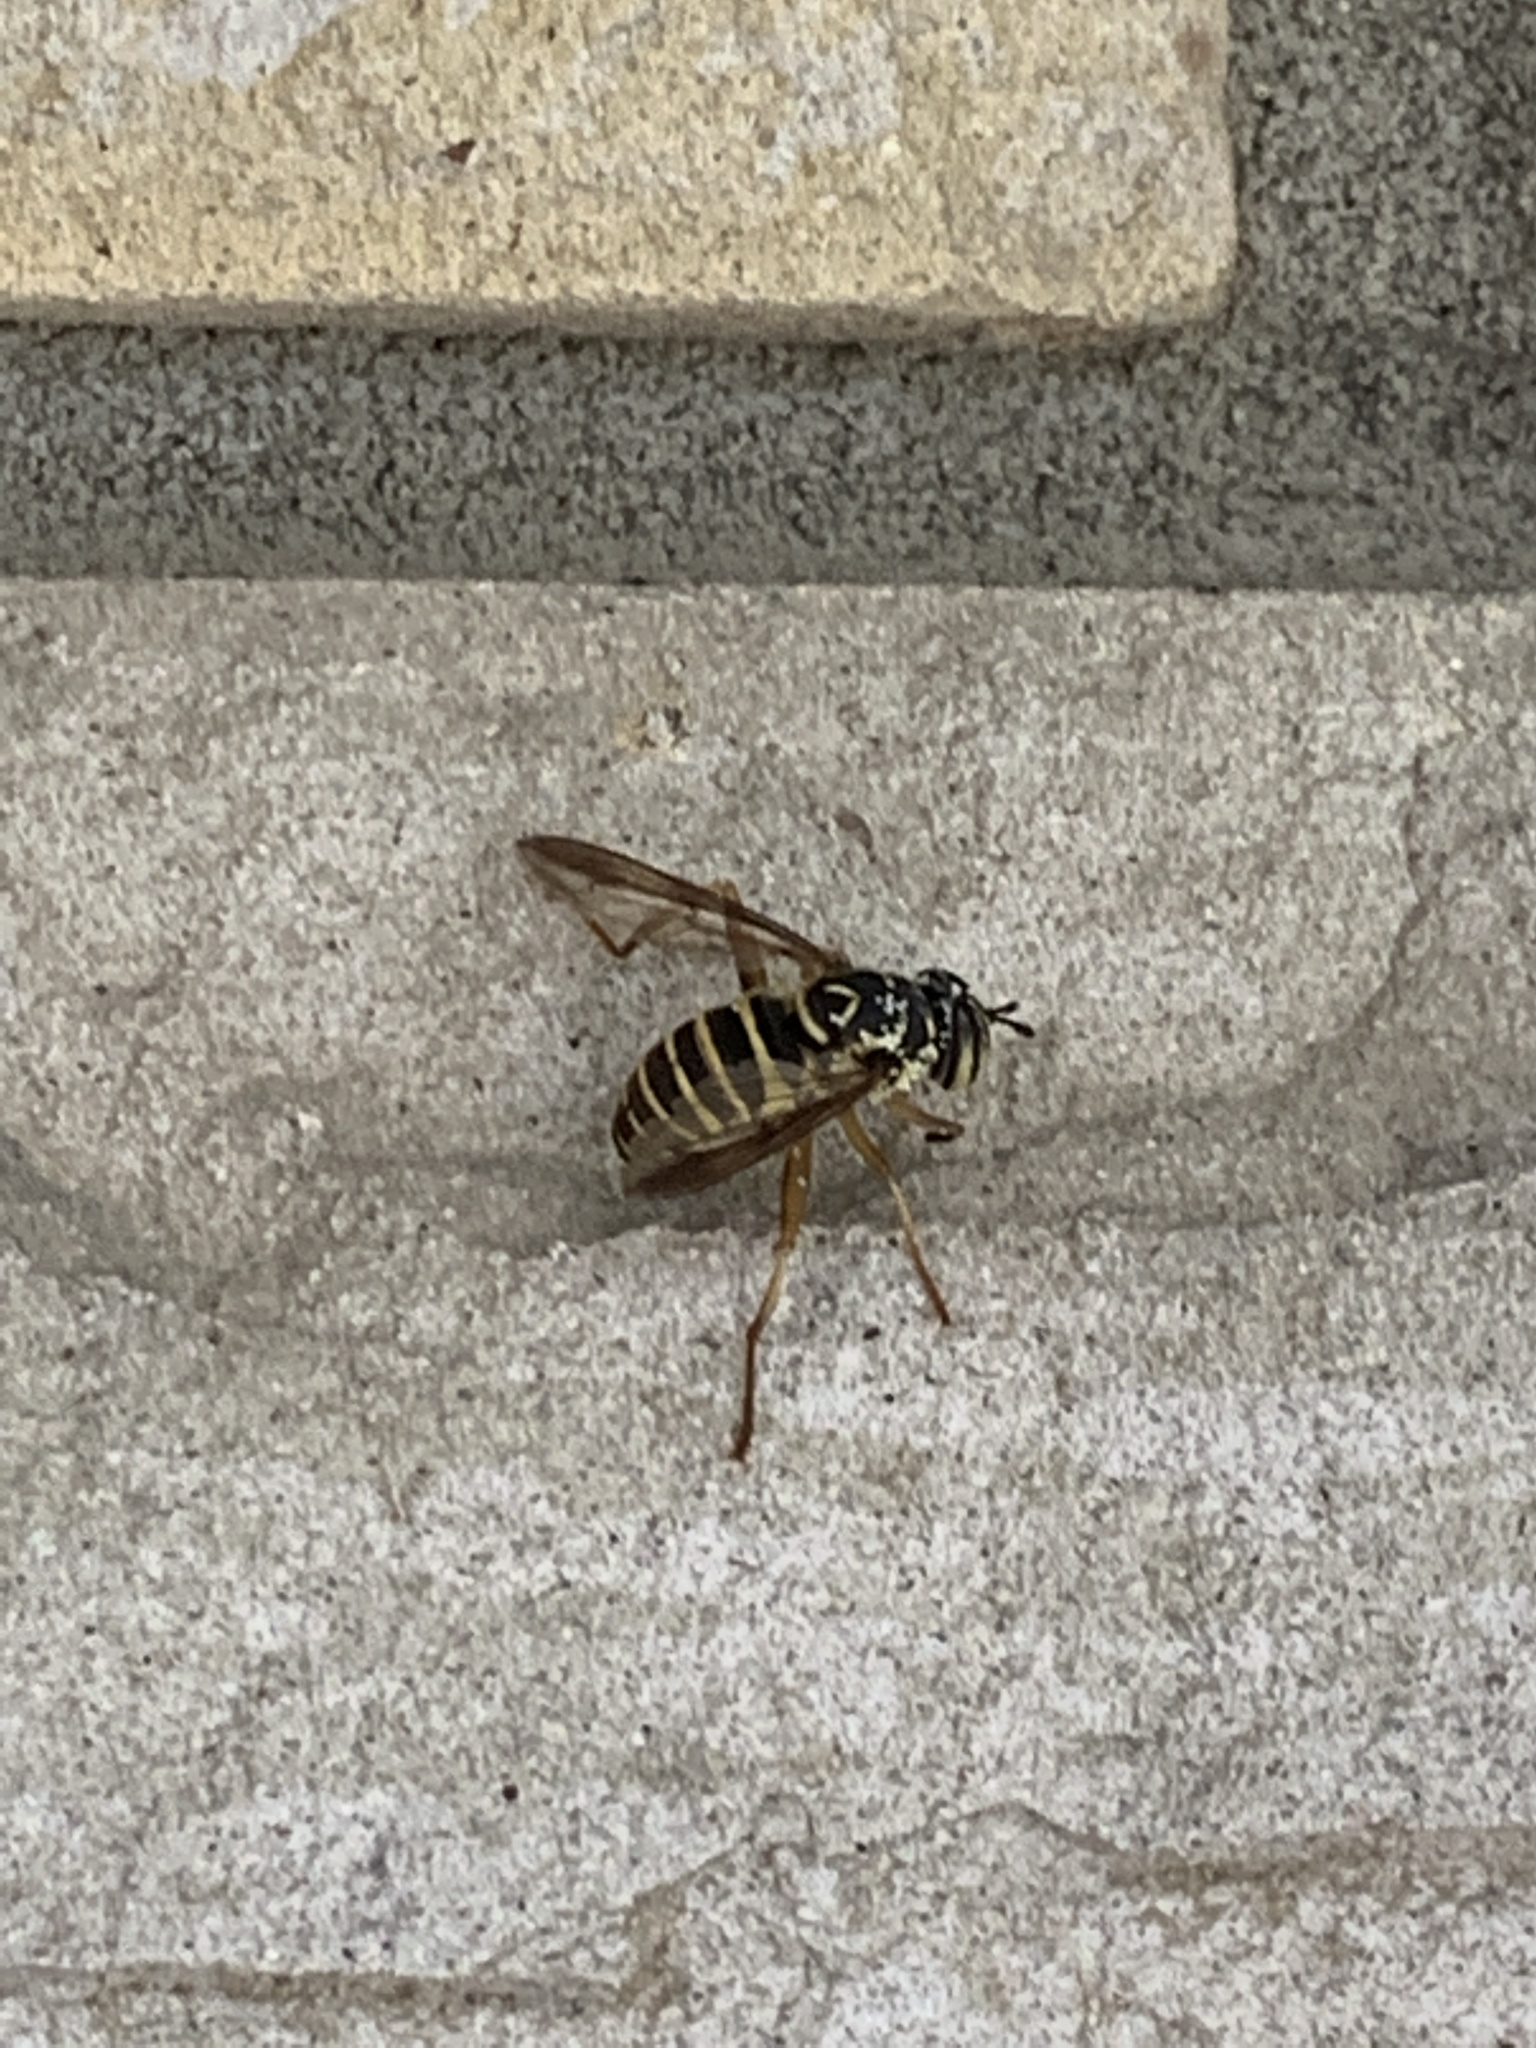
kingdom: Animalia
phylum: Arthropoda
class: Insecta
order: Diptera
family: Syrphidae
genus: Spilomyia
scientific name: Spilomyia longicornis
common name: Eastern hornet fly
